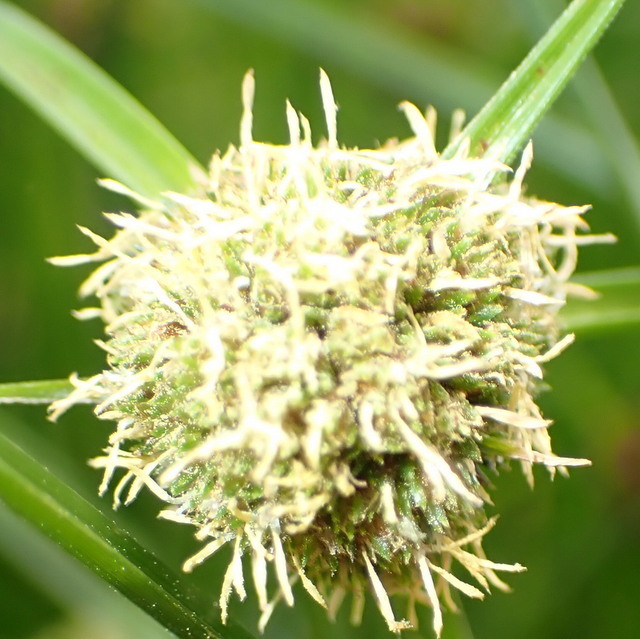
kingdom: Plantae
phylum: Tracheophyta
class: Liliopsida
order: Poales
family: Cyperaceae
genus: Cyperus
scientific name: Cyperus blepharoleptos
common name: Cuban bulrush
